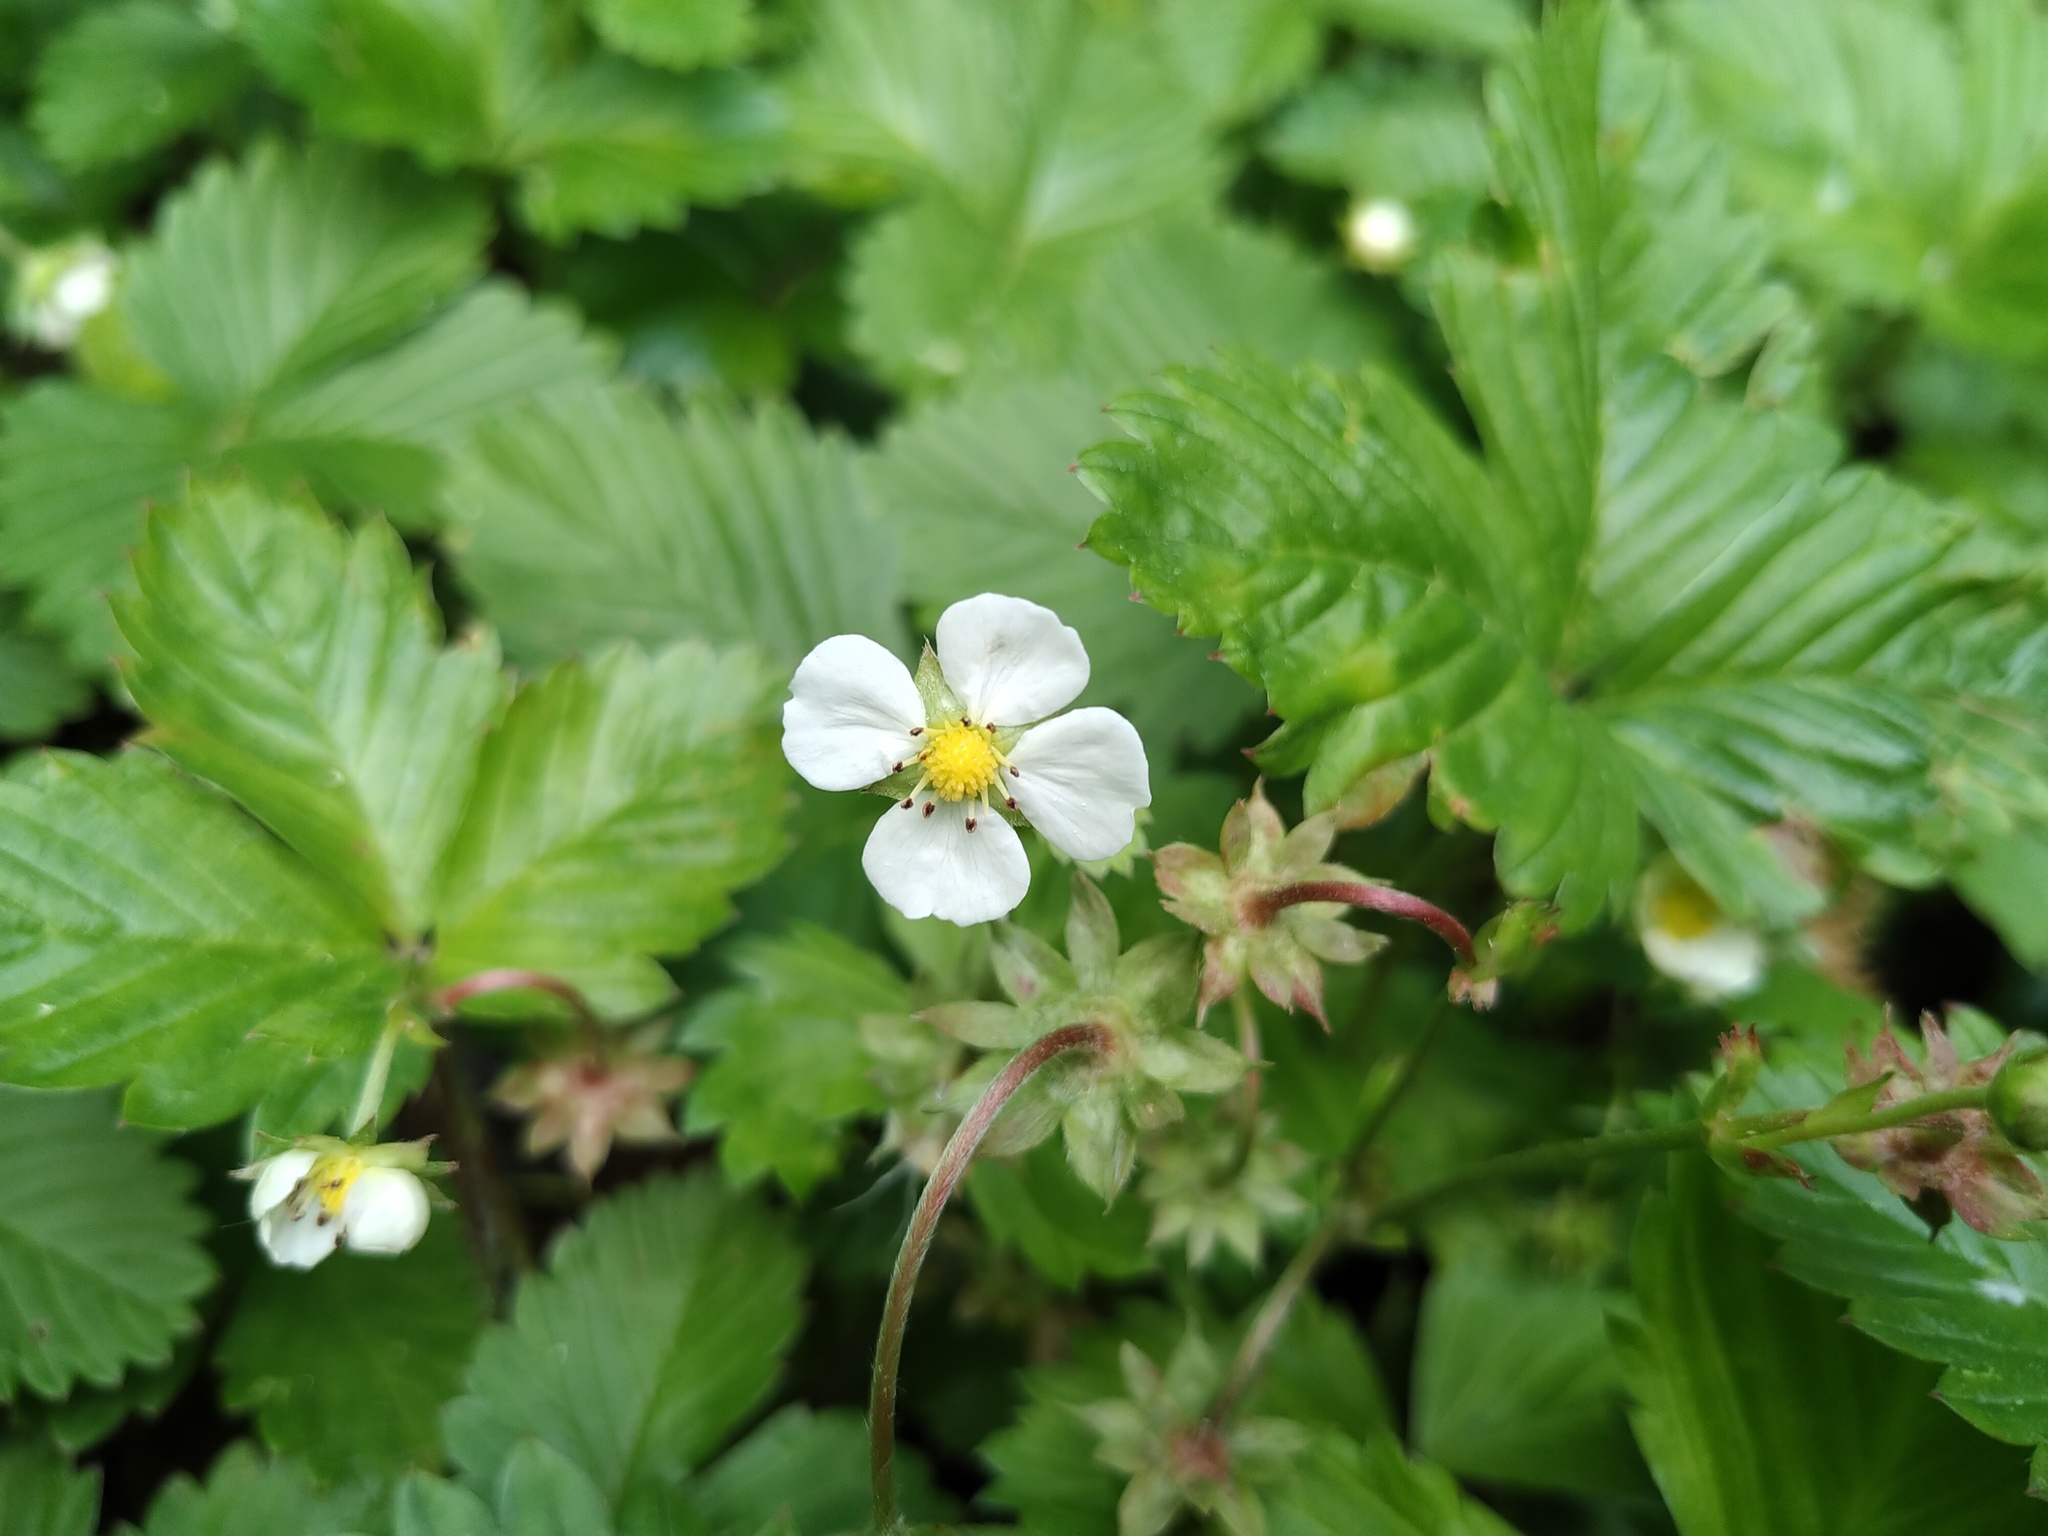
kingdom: Plantae
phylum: Tracheophyta
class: Magnoliopsida
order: Rosales
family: Rosaceae
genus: Fragaria
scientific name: Fragaria vesca
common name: Wild strawberry
